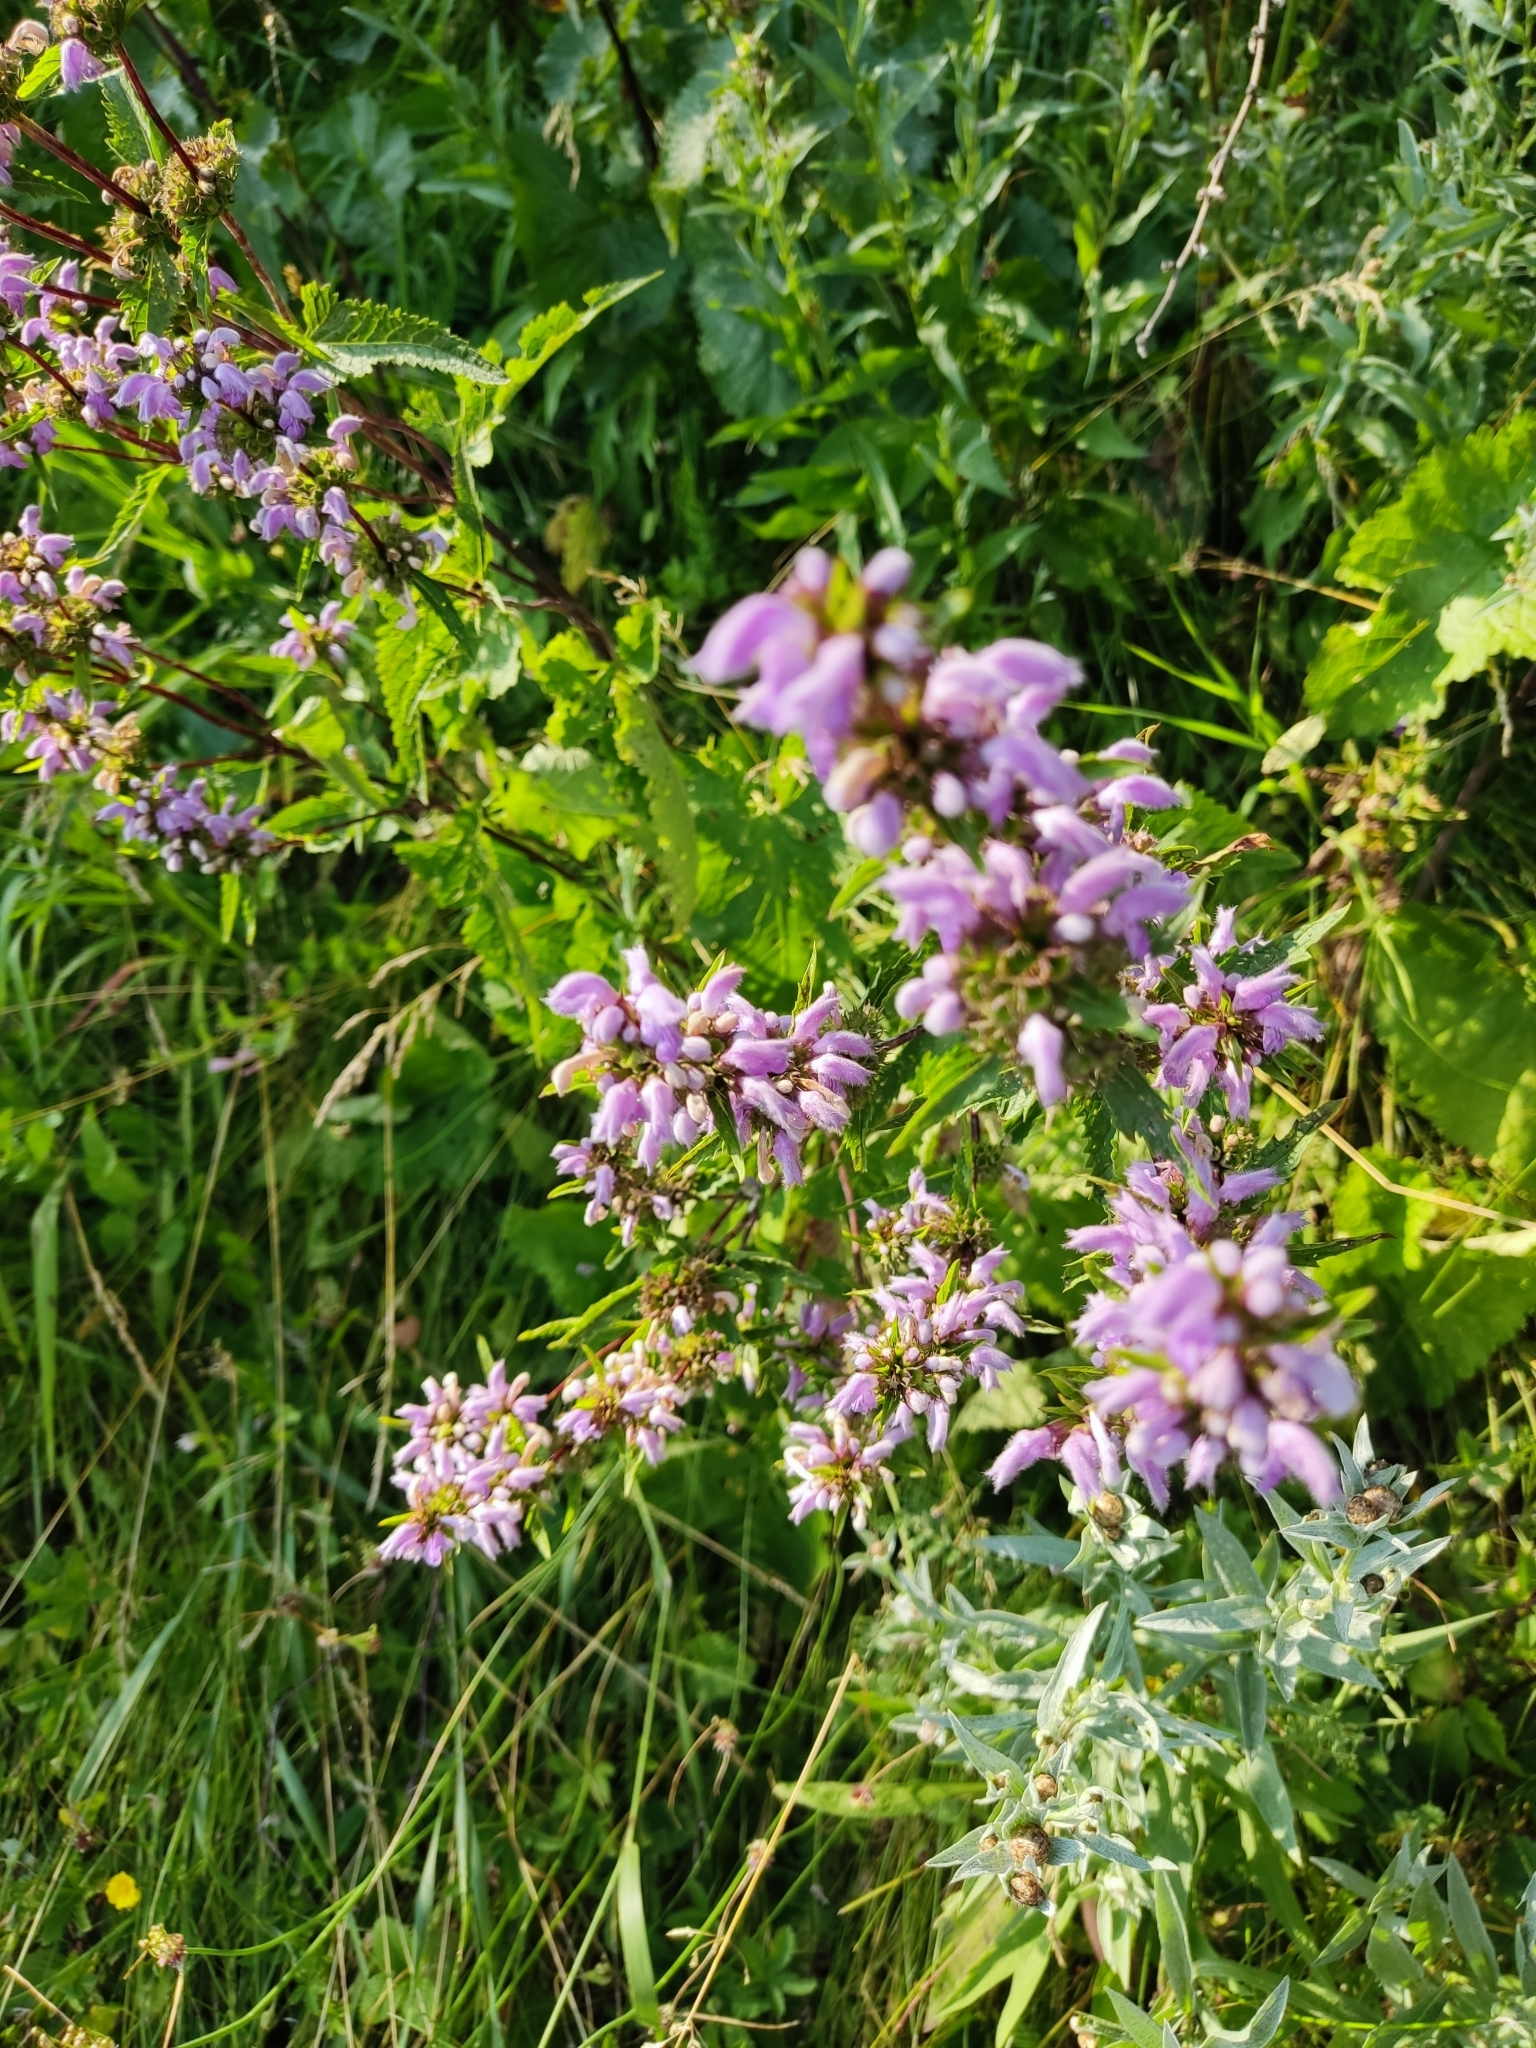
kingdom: Plantae
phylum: Tracheophyta
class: Magnoliopsida
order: Lamiales
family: Lamiaceae
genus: Phlomoides
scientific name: Phlomoides tuberosa
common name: Tuberous jerusalem sage
